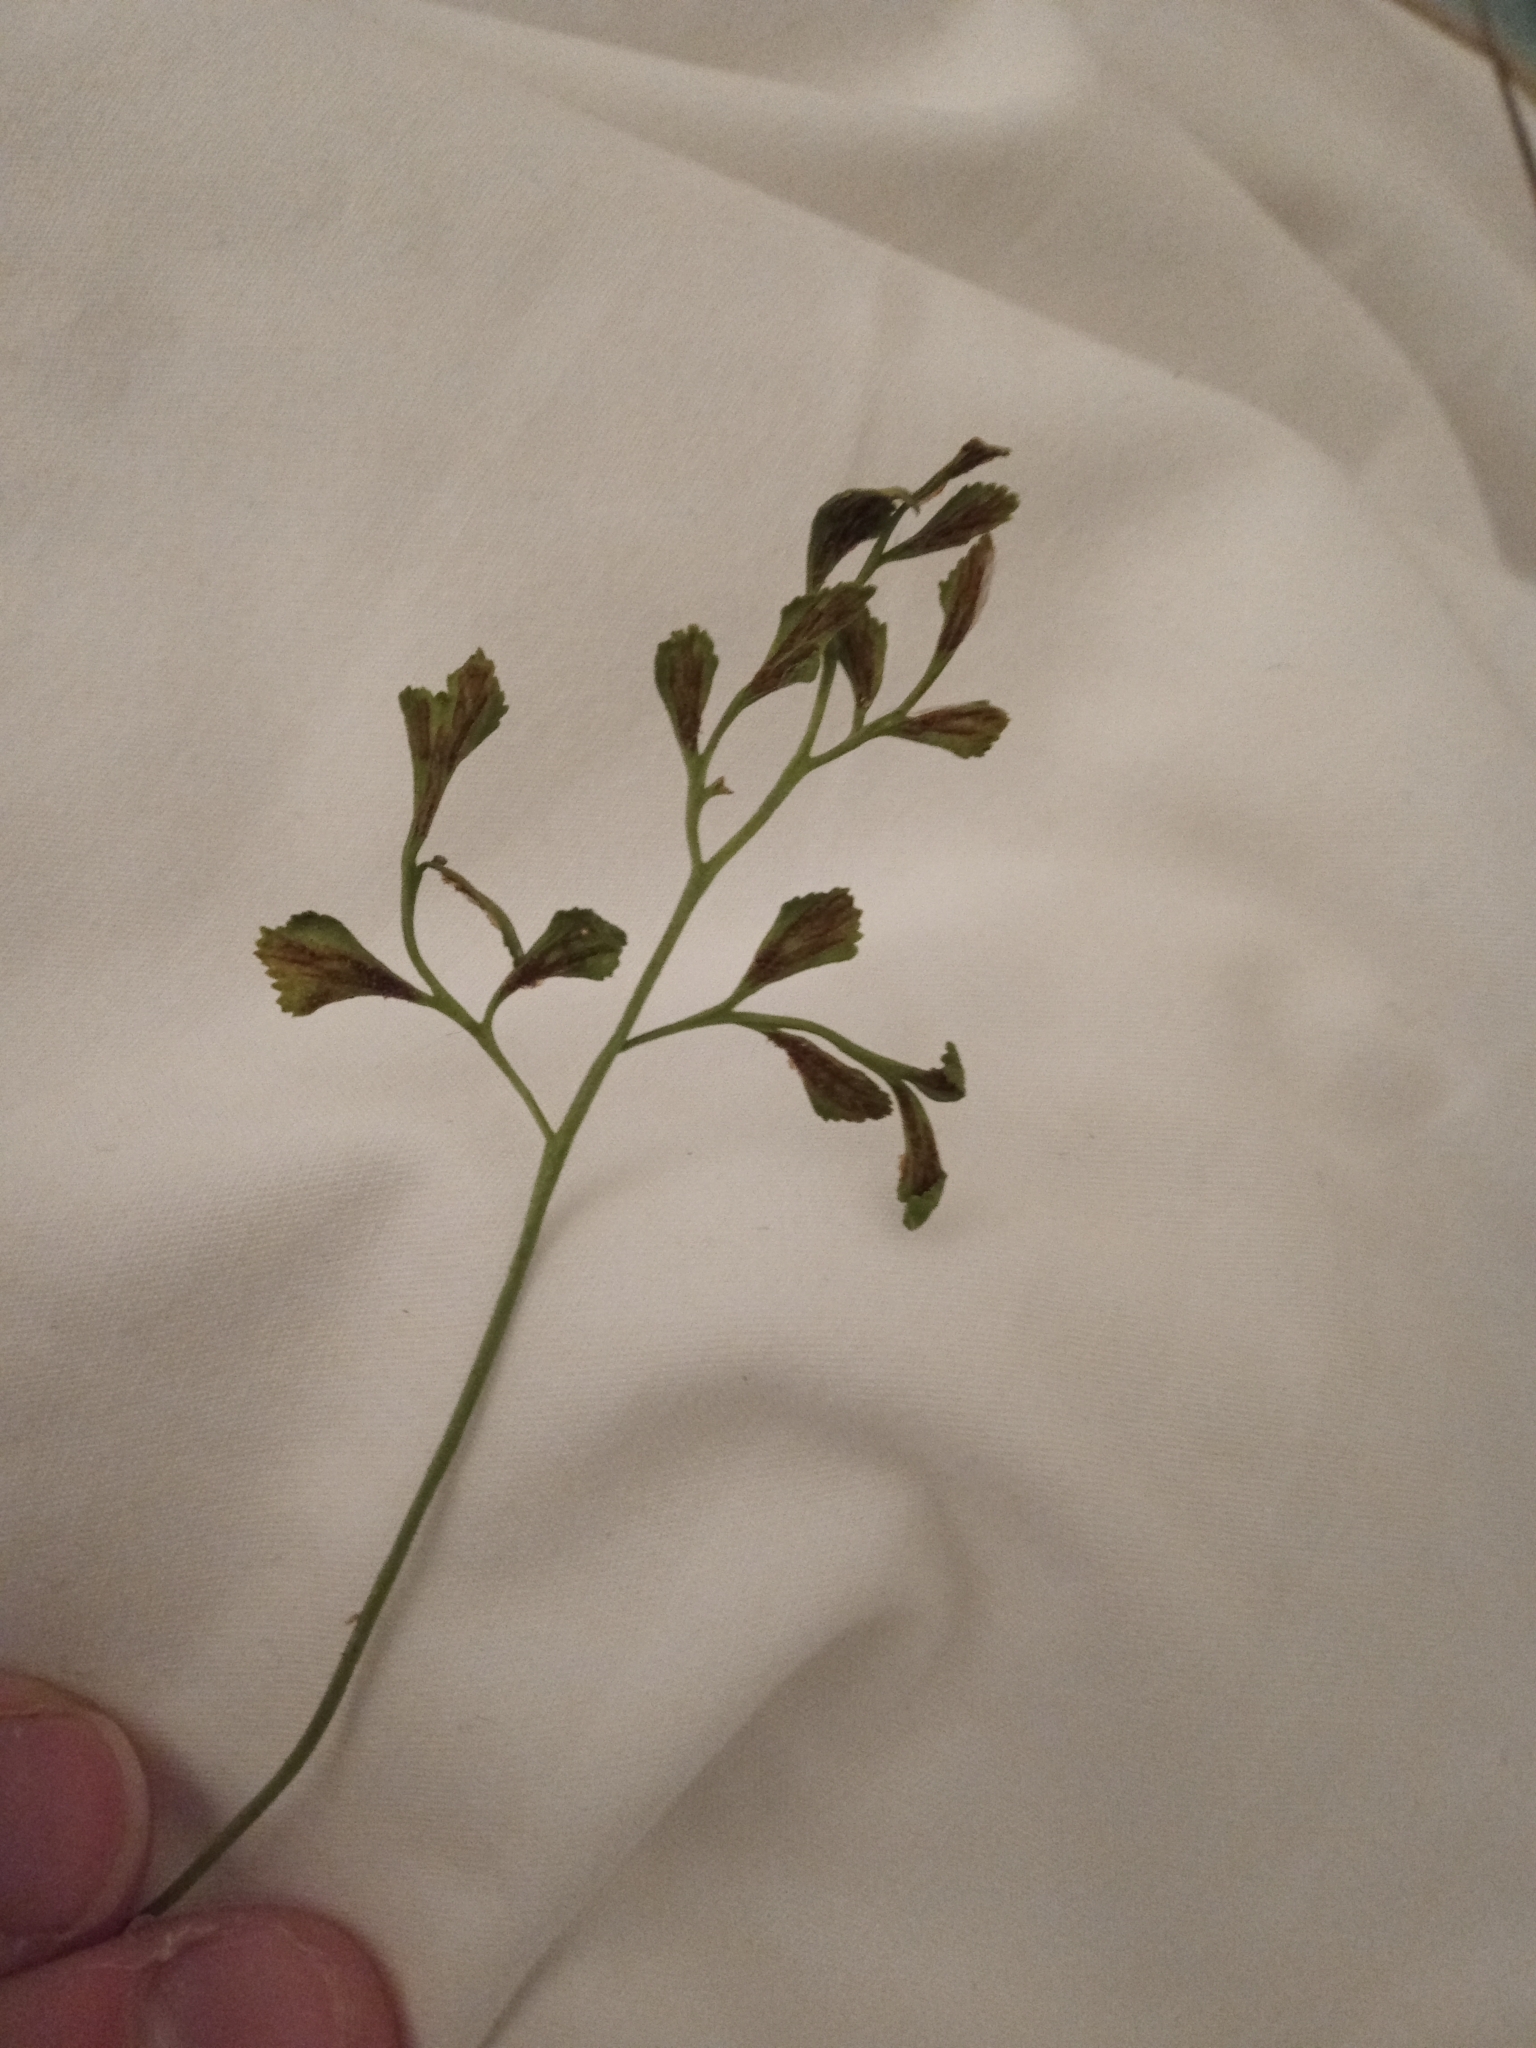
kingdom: Plantae
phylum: Tracheophyta
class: Polypodiopsida
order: Polypodiales
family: Aspleniaceae
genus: Asplenium
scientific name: Asplenium ruta-muraria
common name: Wall-rue
